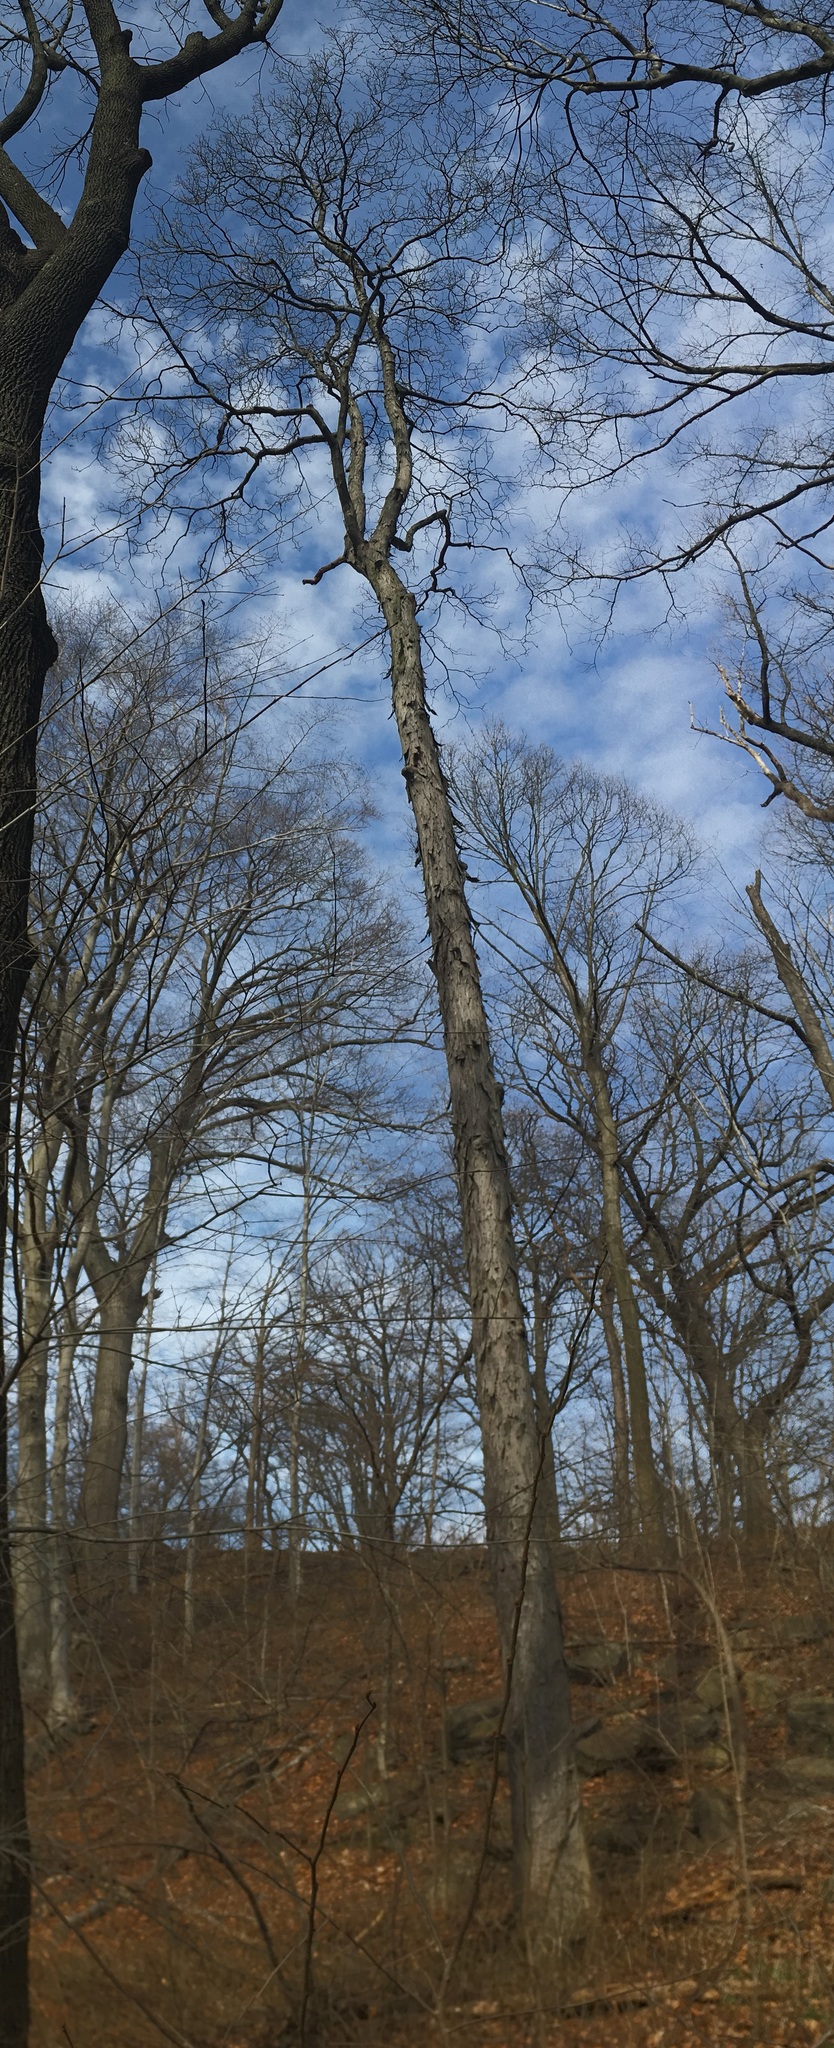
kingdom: Plantae
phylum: Tracheophyta
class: Magnoliopsida
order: Fagales
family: Juglandaceae
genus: Carya
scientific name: Carya ovata
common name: Shagbark hickory
